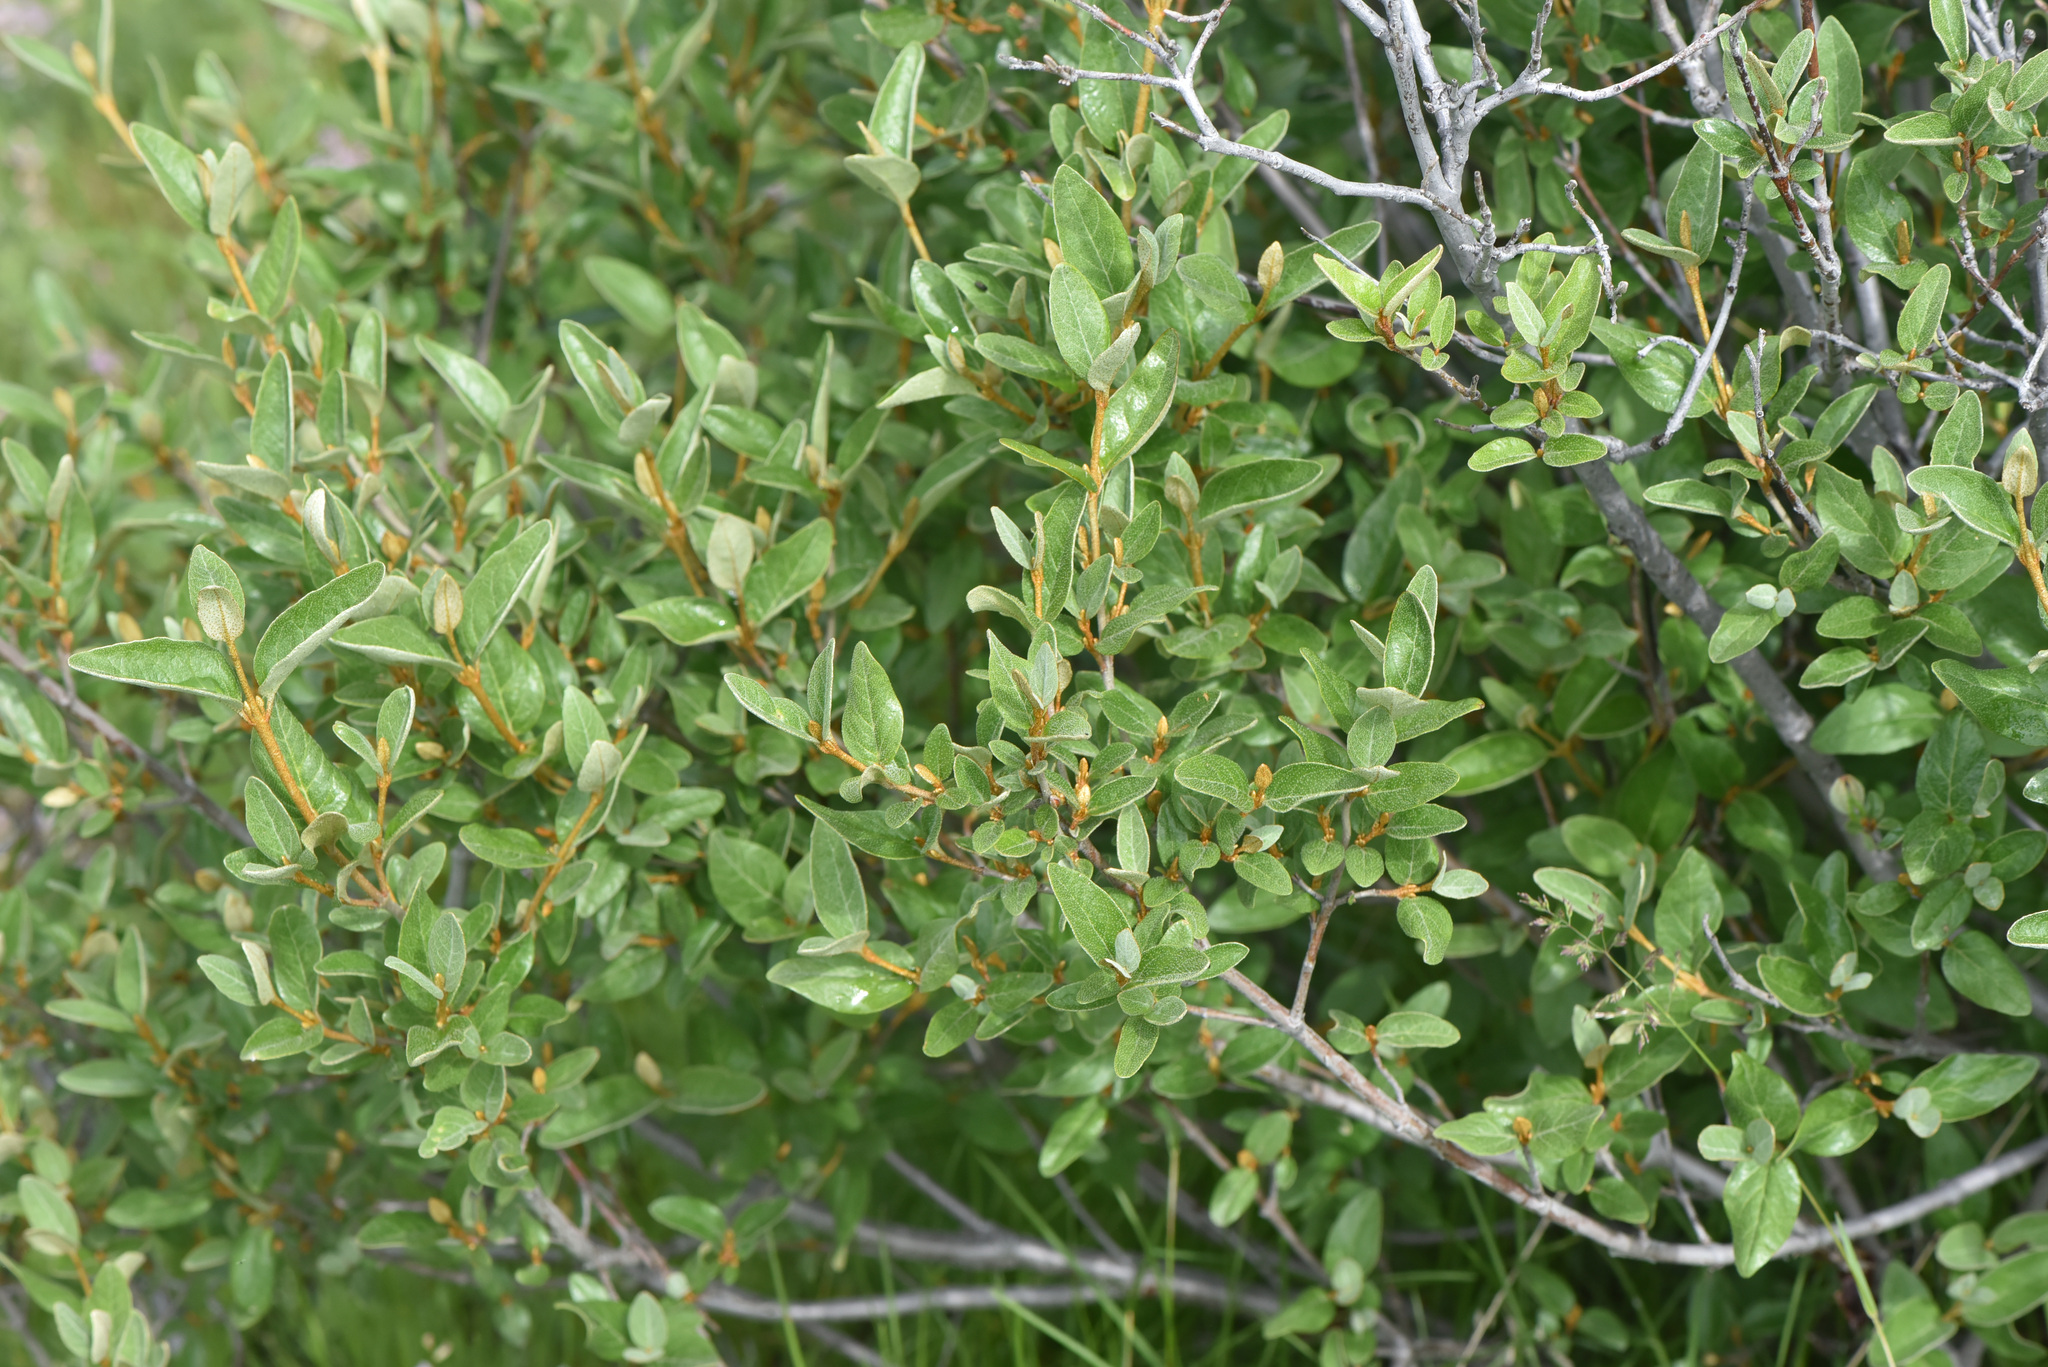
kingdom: Plantae
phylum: Tracheophyta
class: Magnoliopsida
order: Rosales
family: Elaeagnaceae
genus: Shepherdia
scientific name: Shepherdia canadensis
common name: Soapberry
